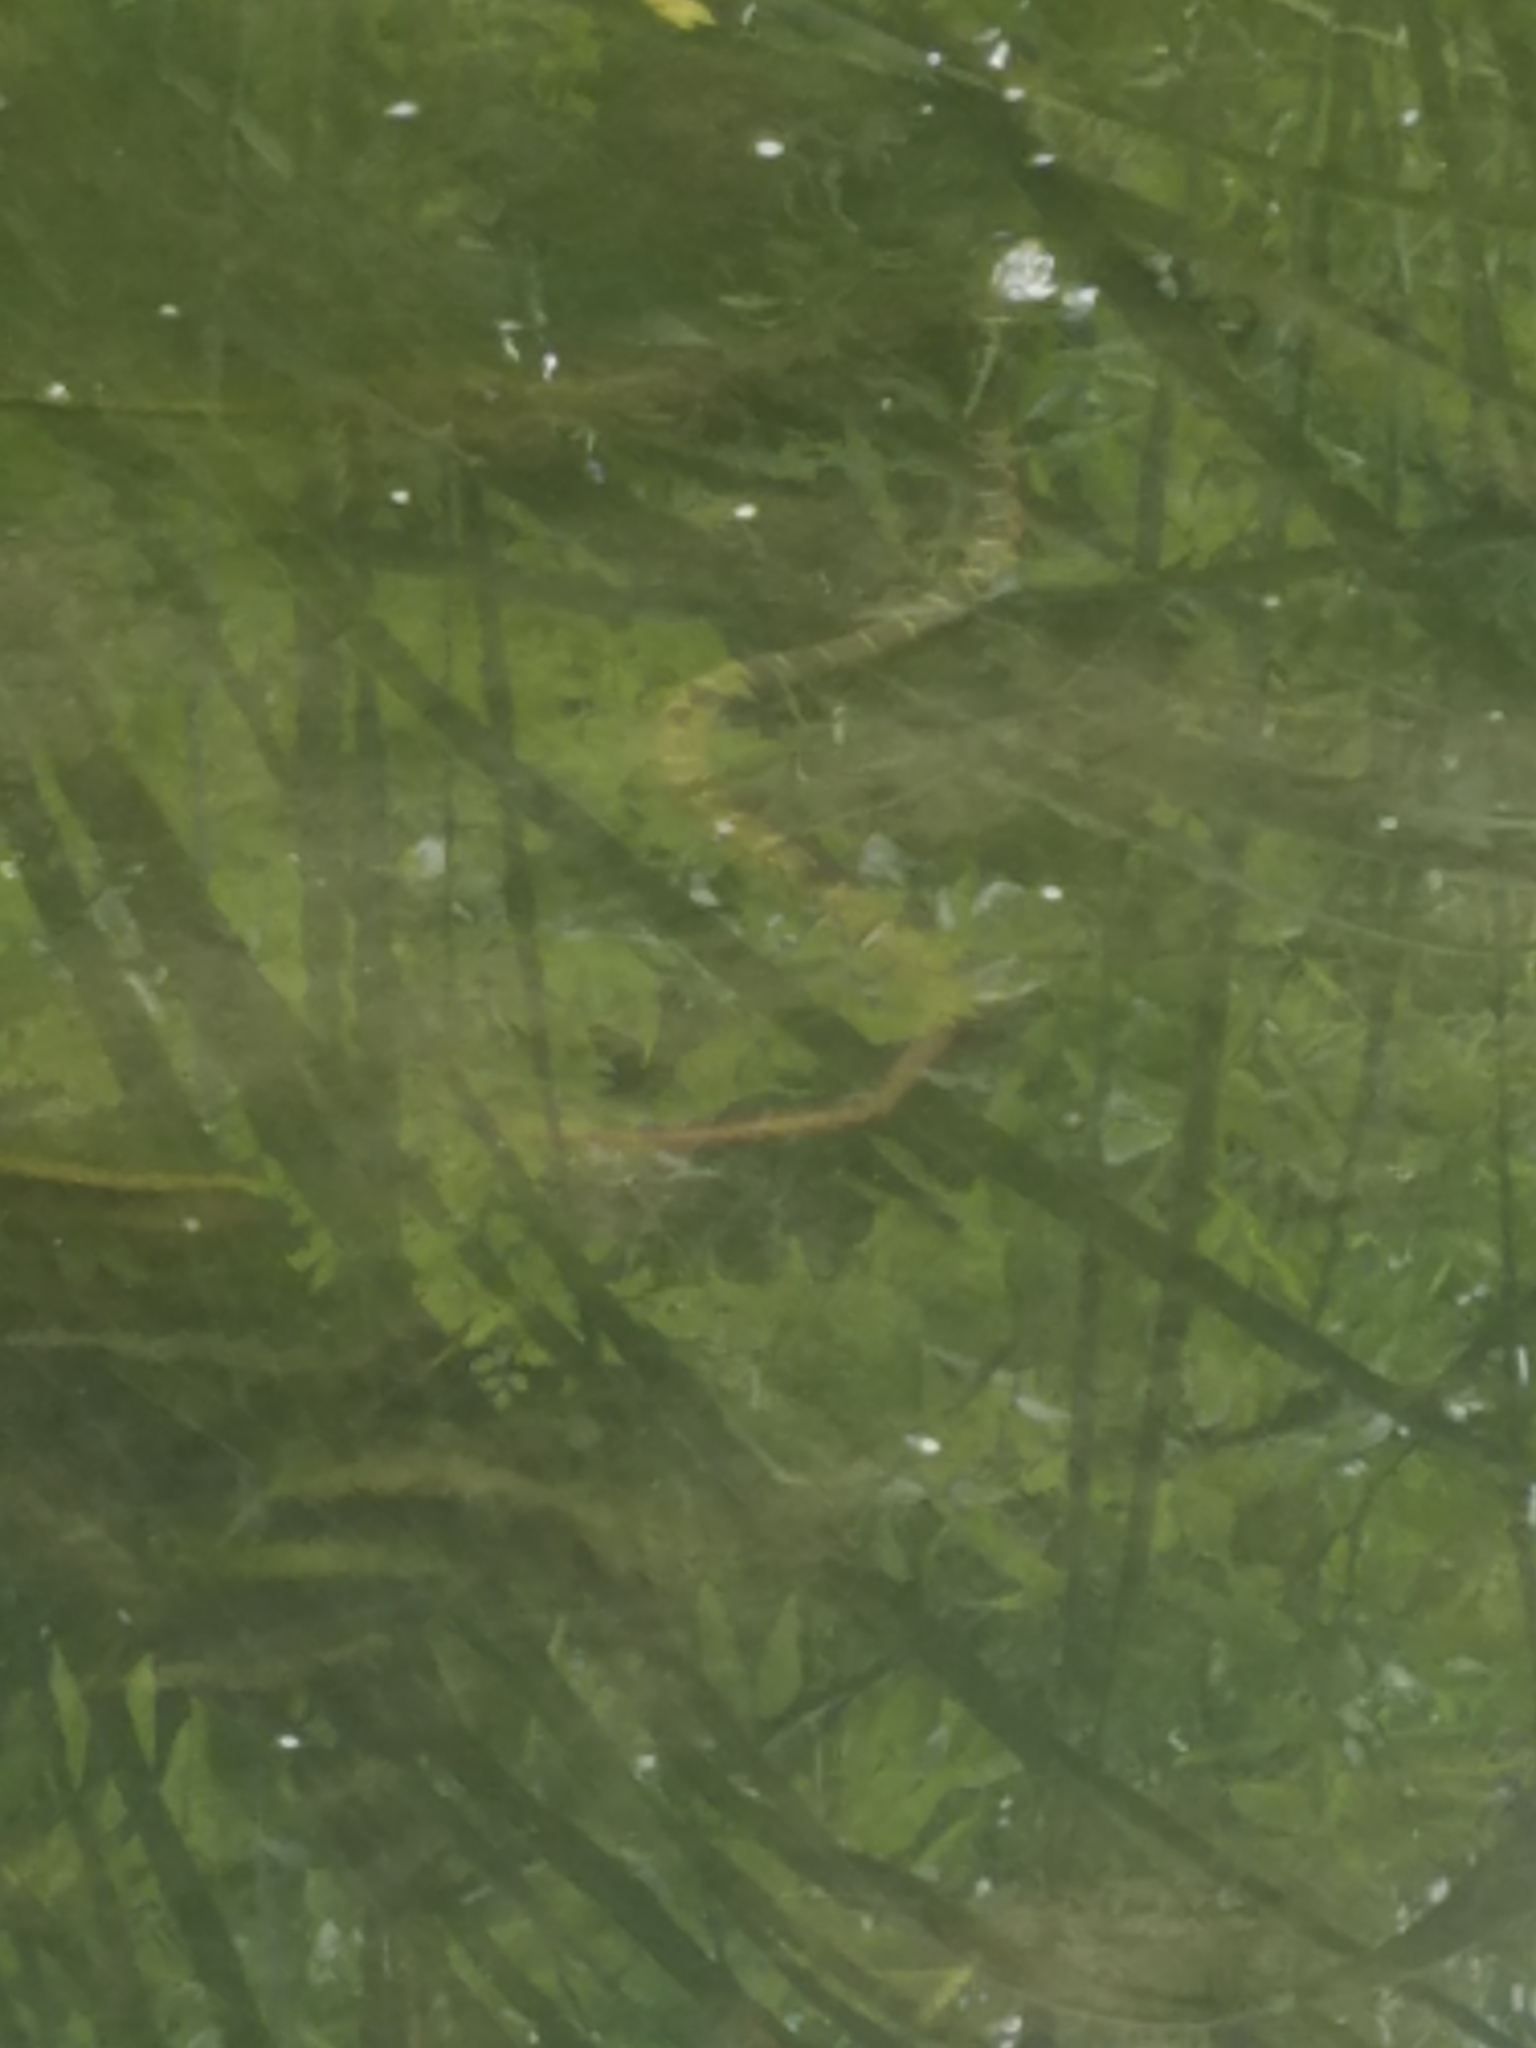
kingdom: Animalia
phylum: Chordata
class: Squamata
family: Colubridae
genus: Nerodia
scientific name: Nerodia erythrogaster
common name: Plainbelly water snake
